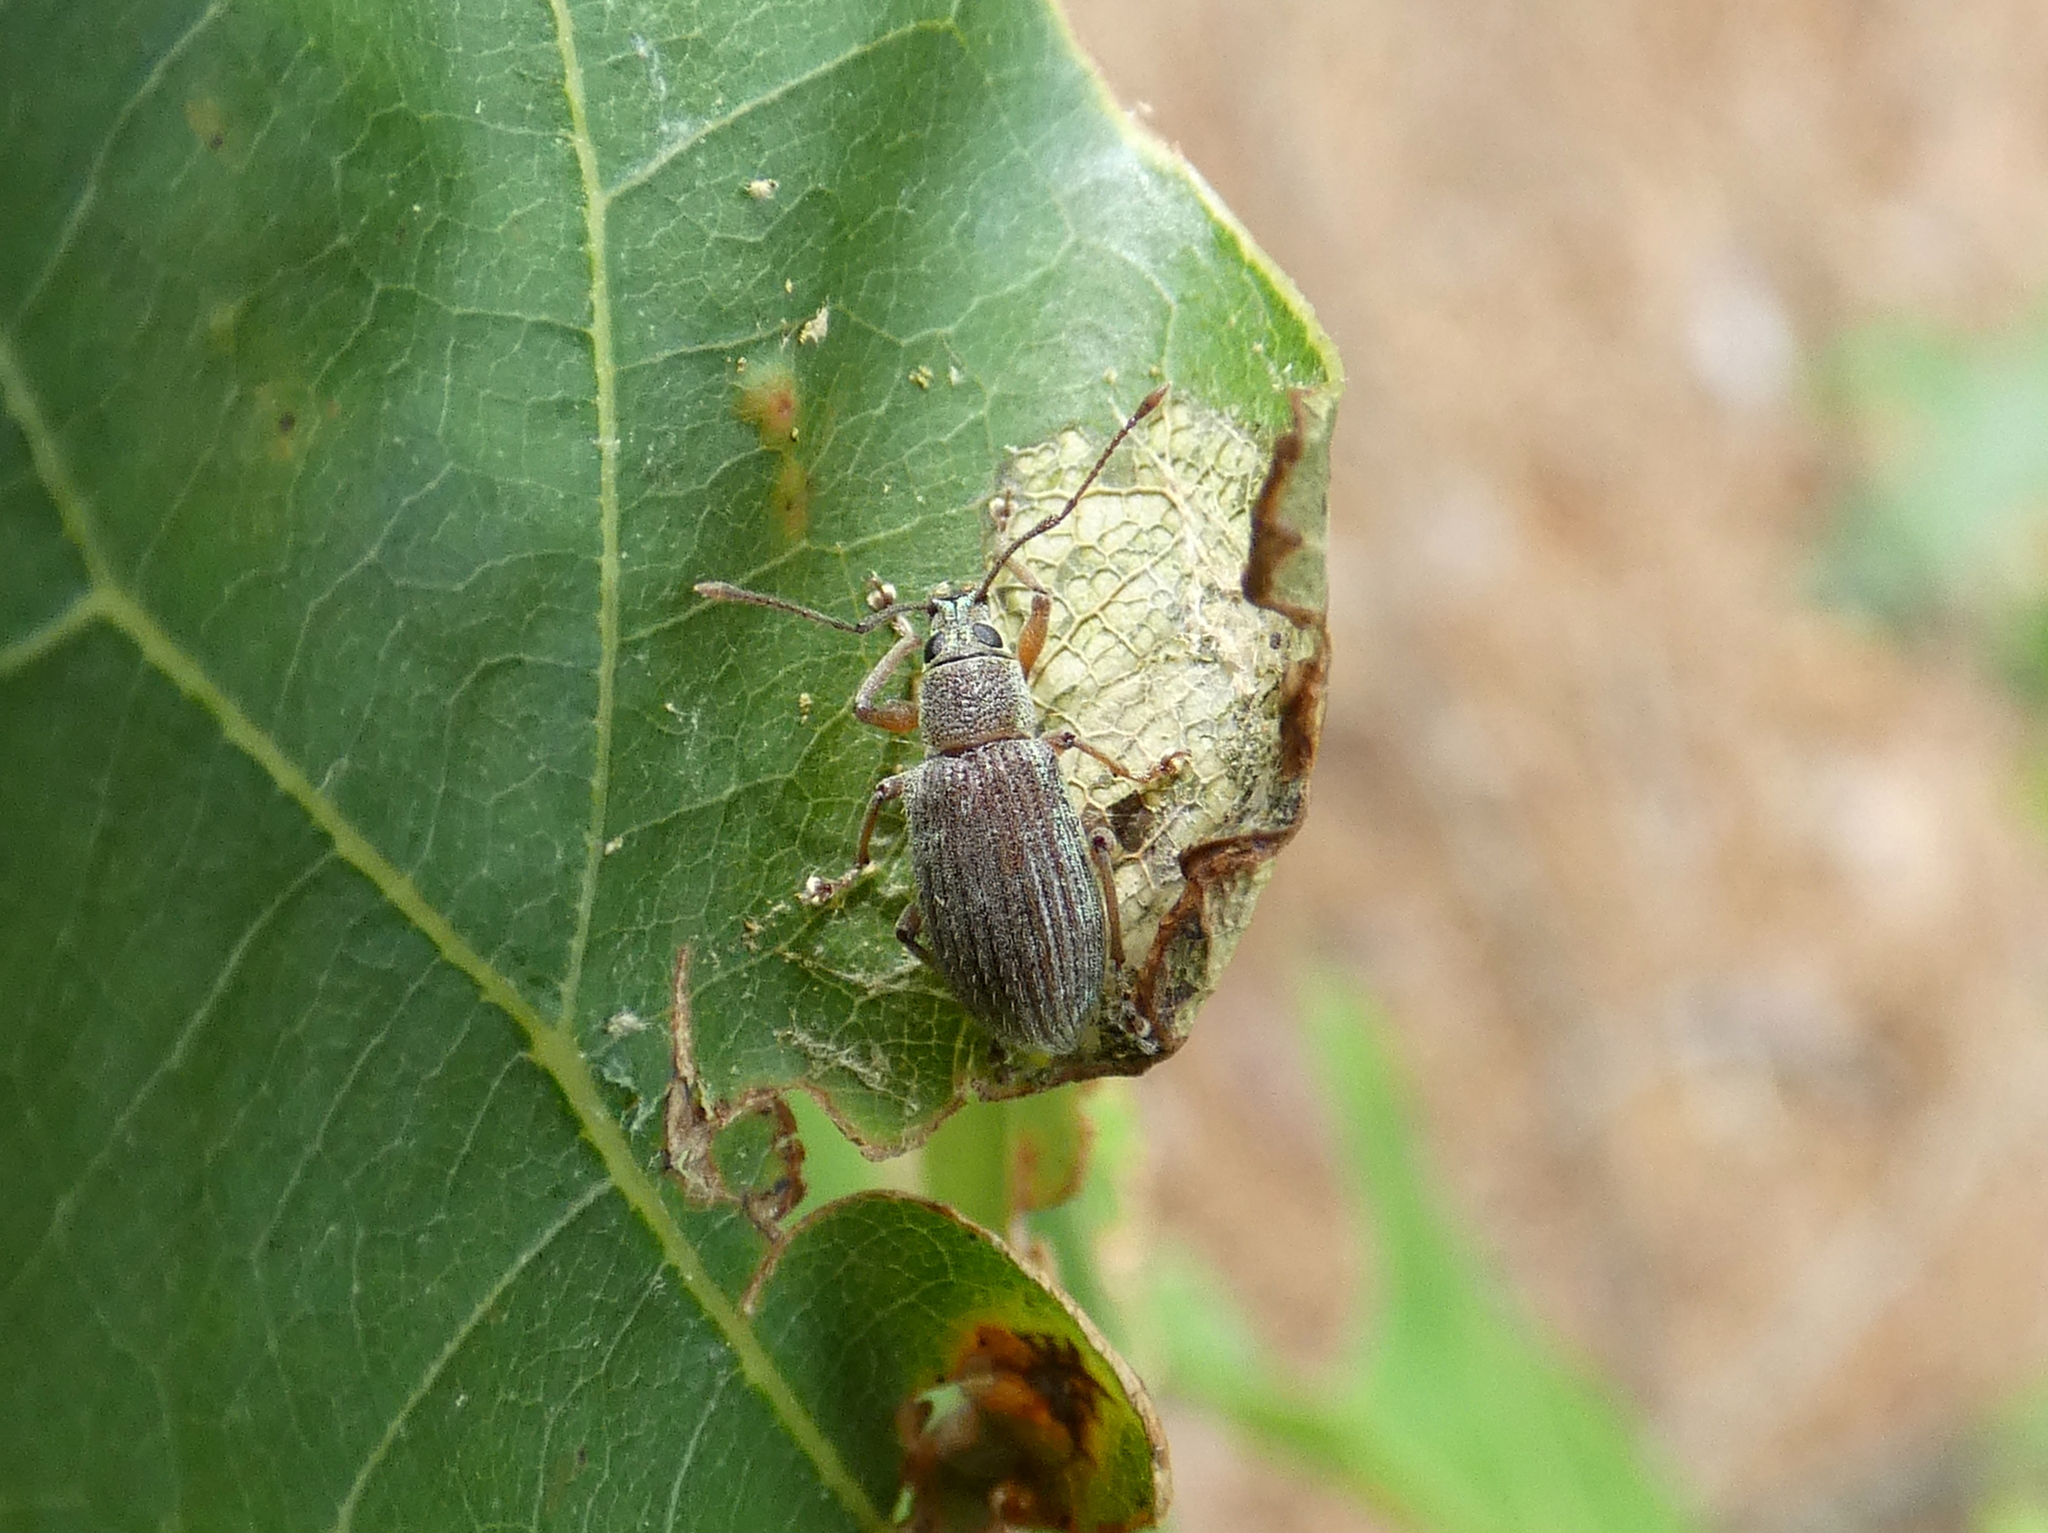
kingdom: Animalia
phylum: Arthropoda
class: Insecta
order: Coleoptera
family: Curculionidae
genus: Cyrtepistomus
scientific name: Cyrtepistomus castaneus
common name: Weevil
